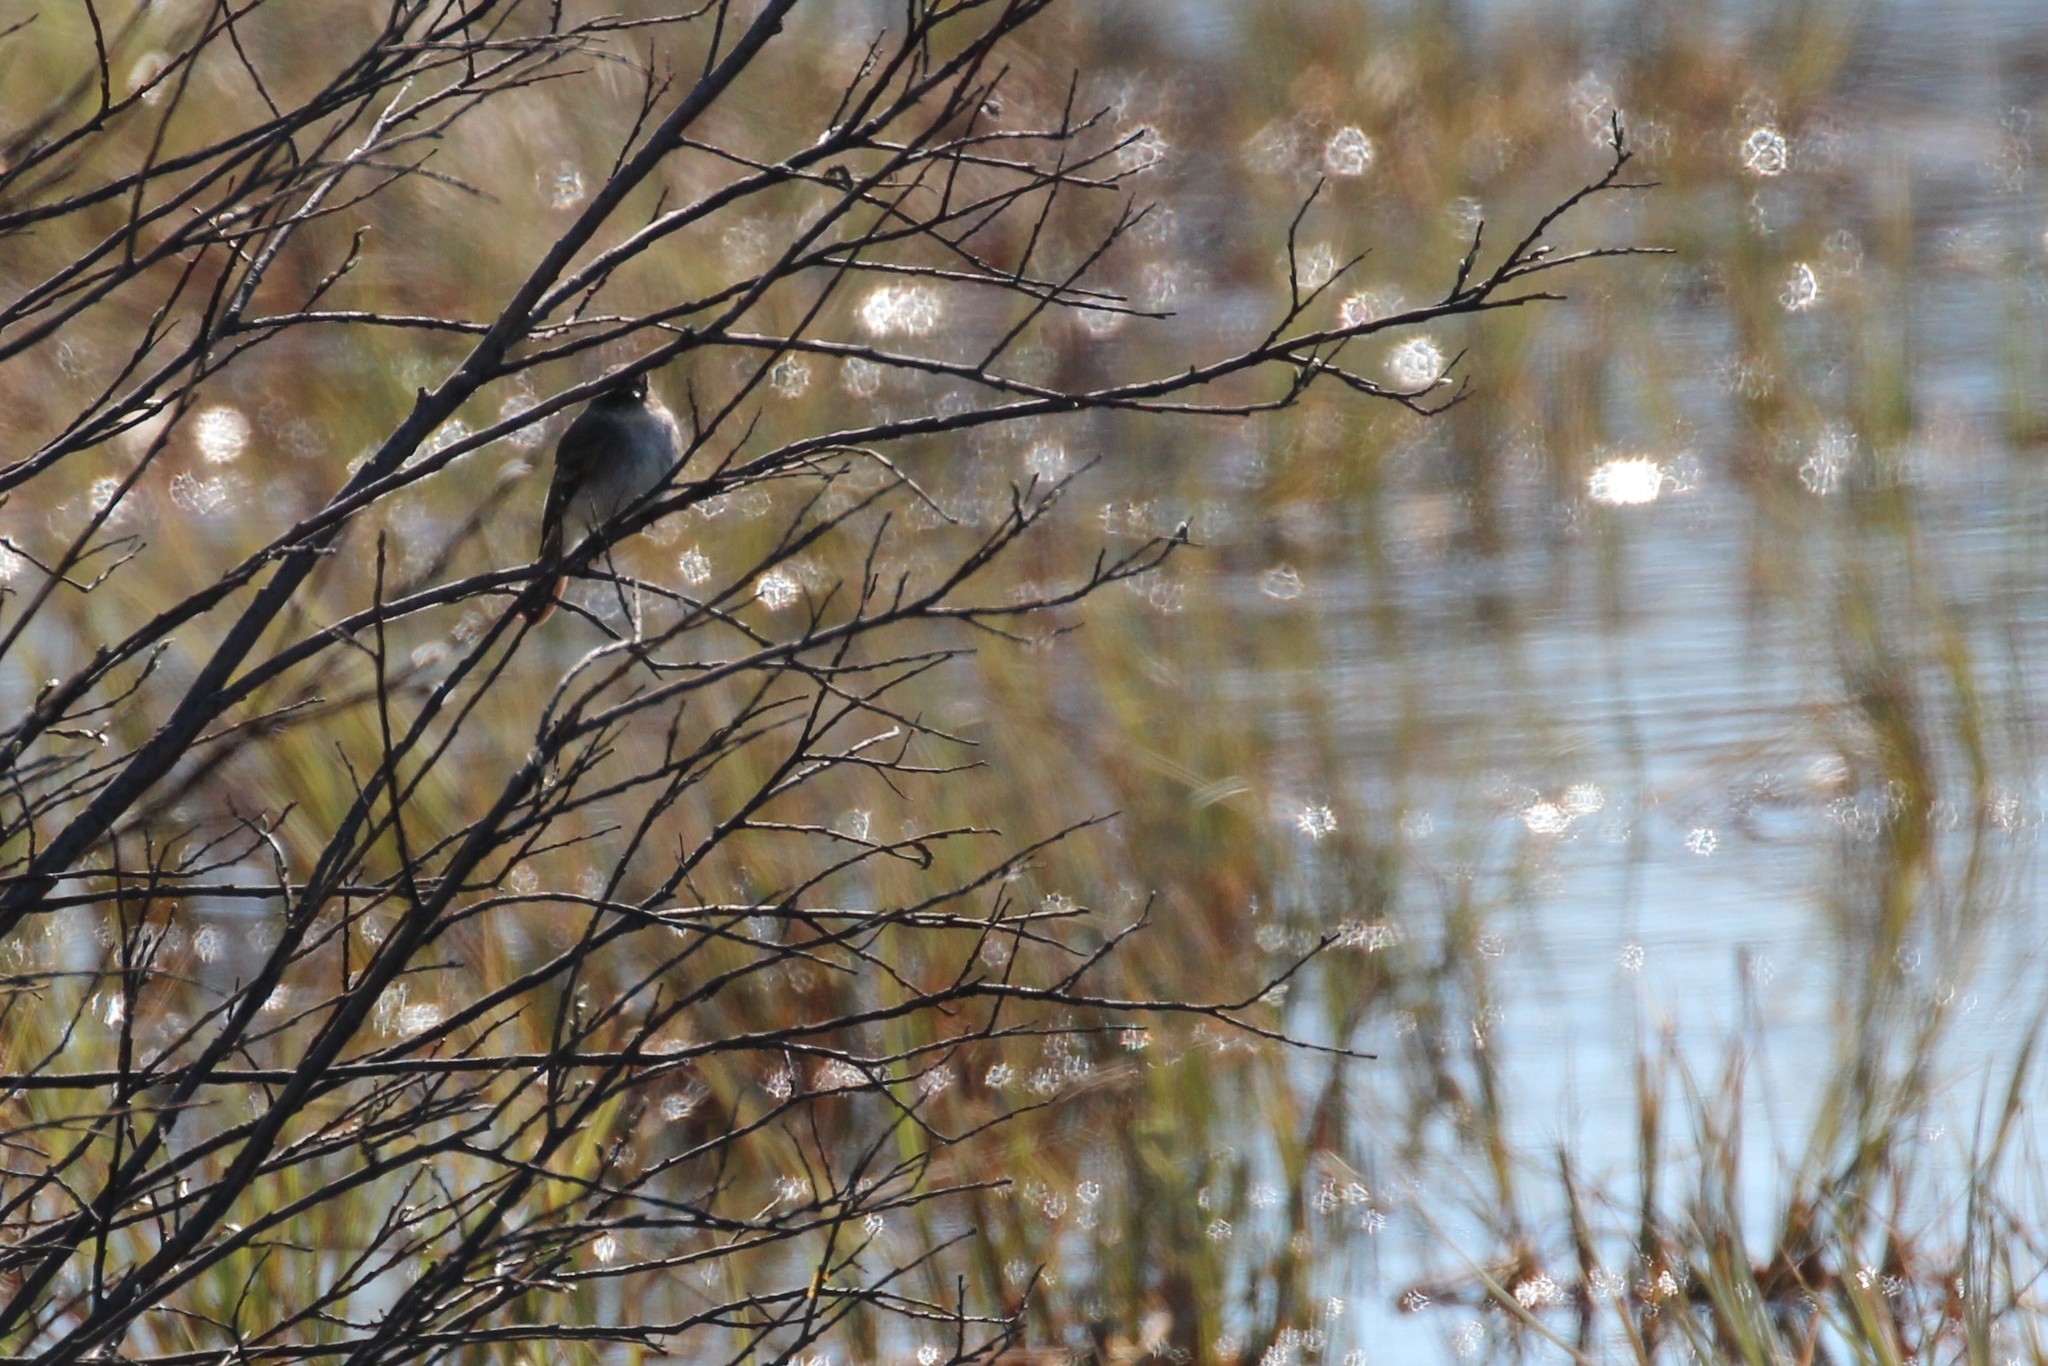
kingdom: Animalia
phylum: Chordata
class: Aves
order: Passeriformes
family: Tyrannidae
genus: Sayornis
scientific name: Sayornis phoebe
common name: Eastern phoebe
